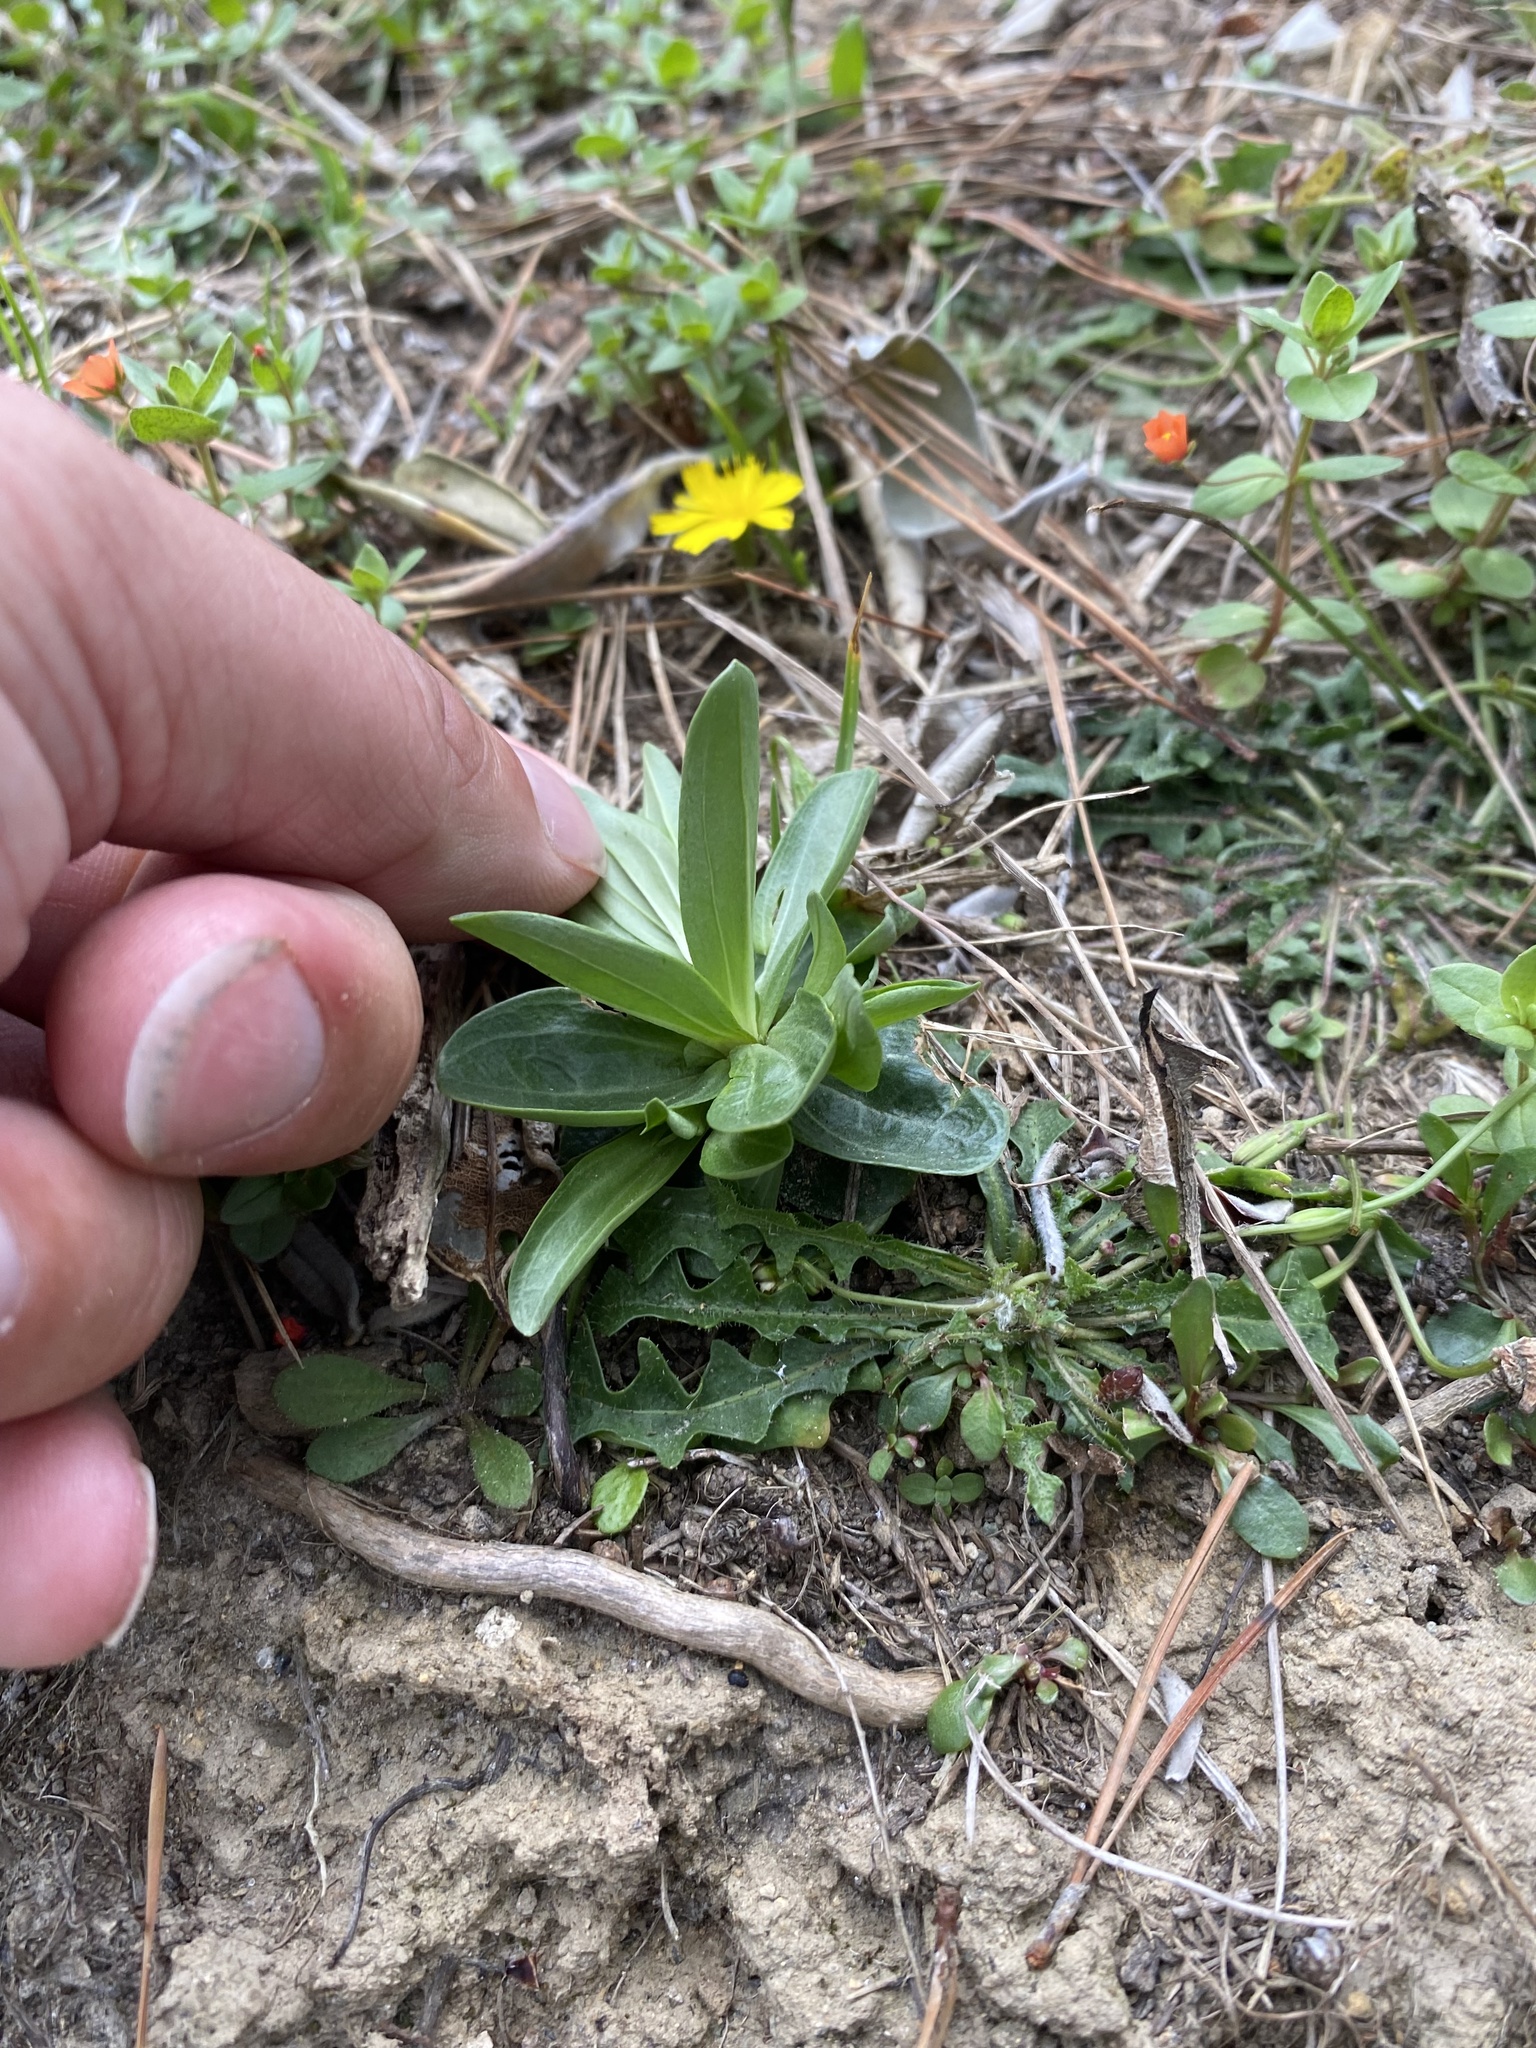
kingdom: Plantae
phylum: Tracheophyta
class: Magnoliopsida
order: Gentianales
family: Gentianaceae
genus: Centaurium
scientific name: Centaurium erythraea
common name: Common centaury
